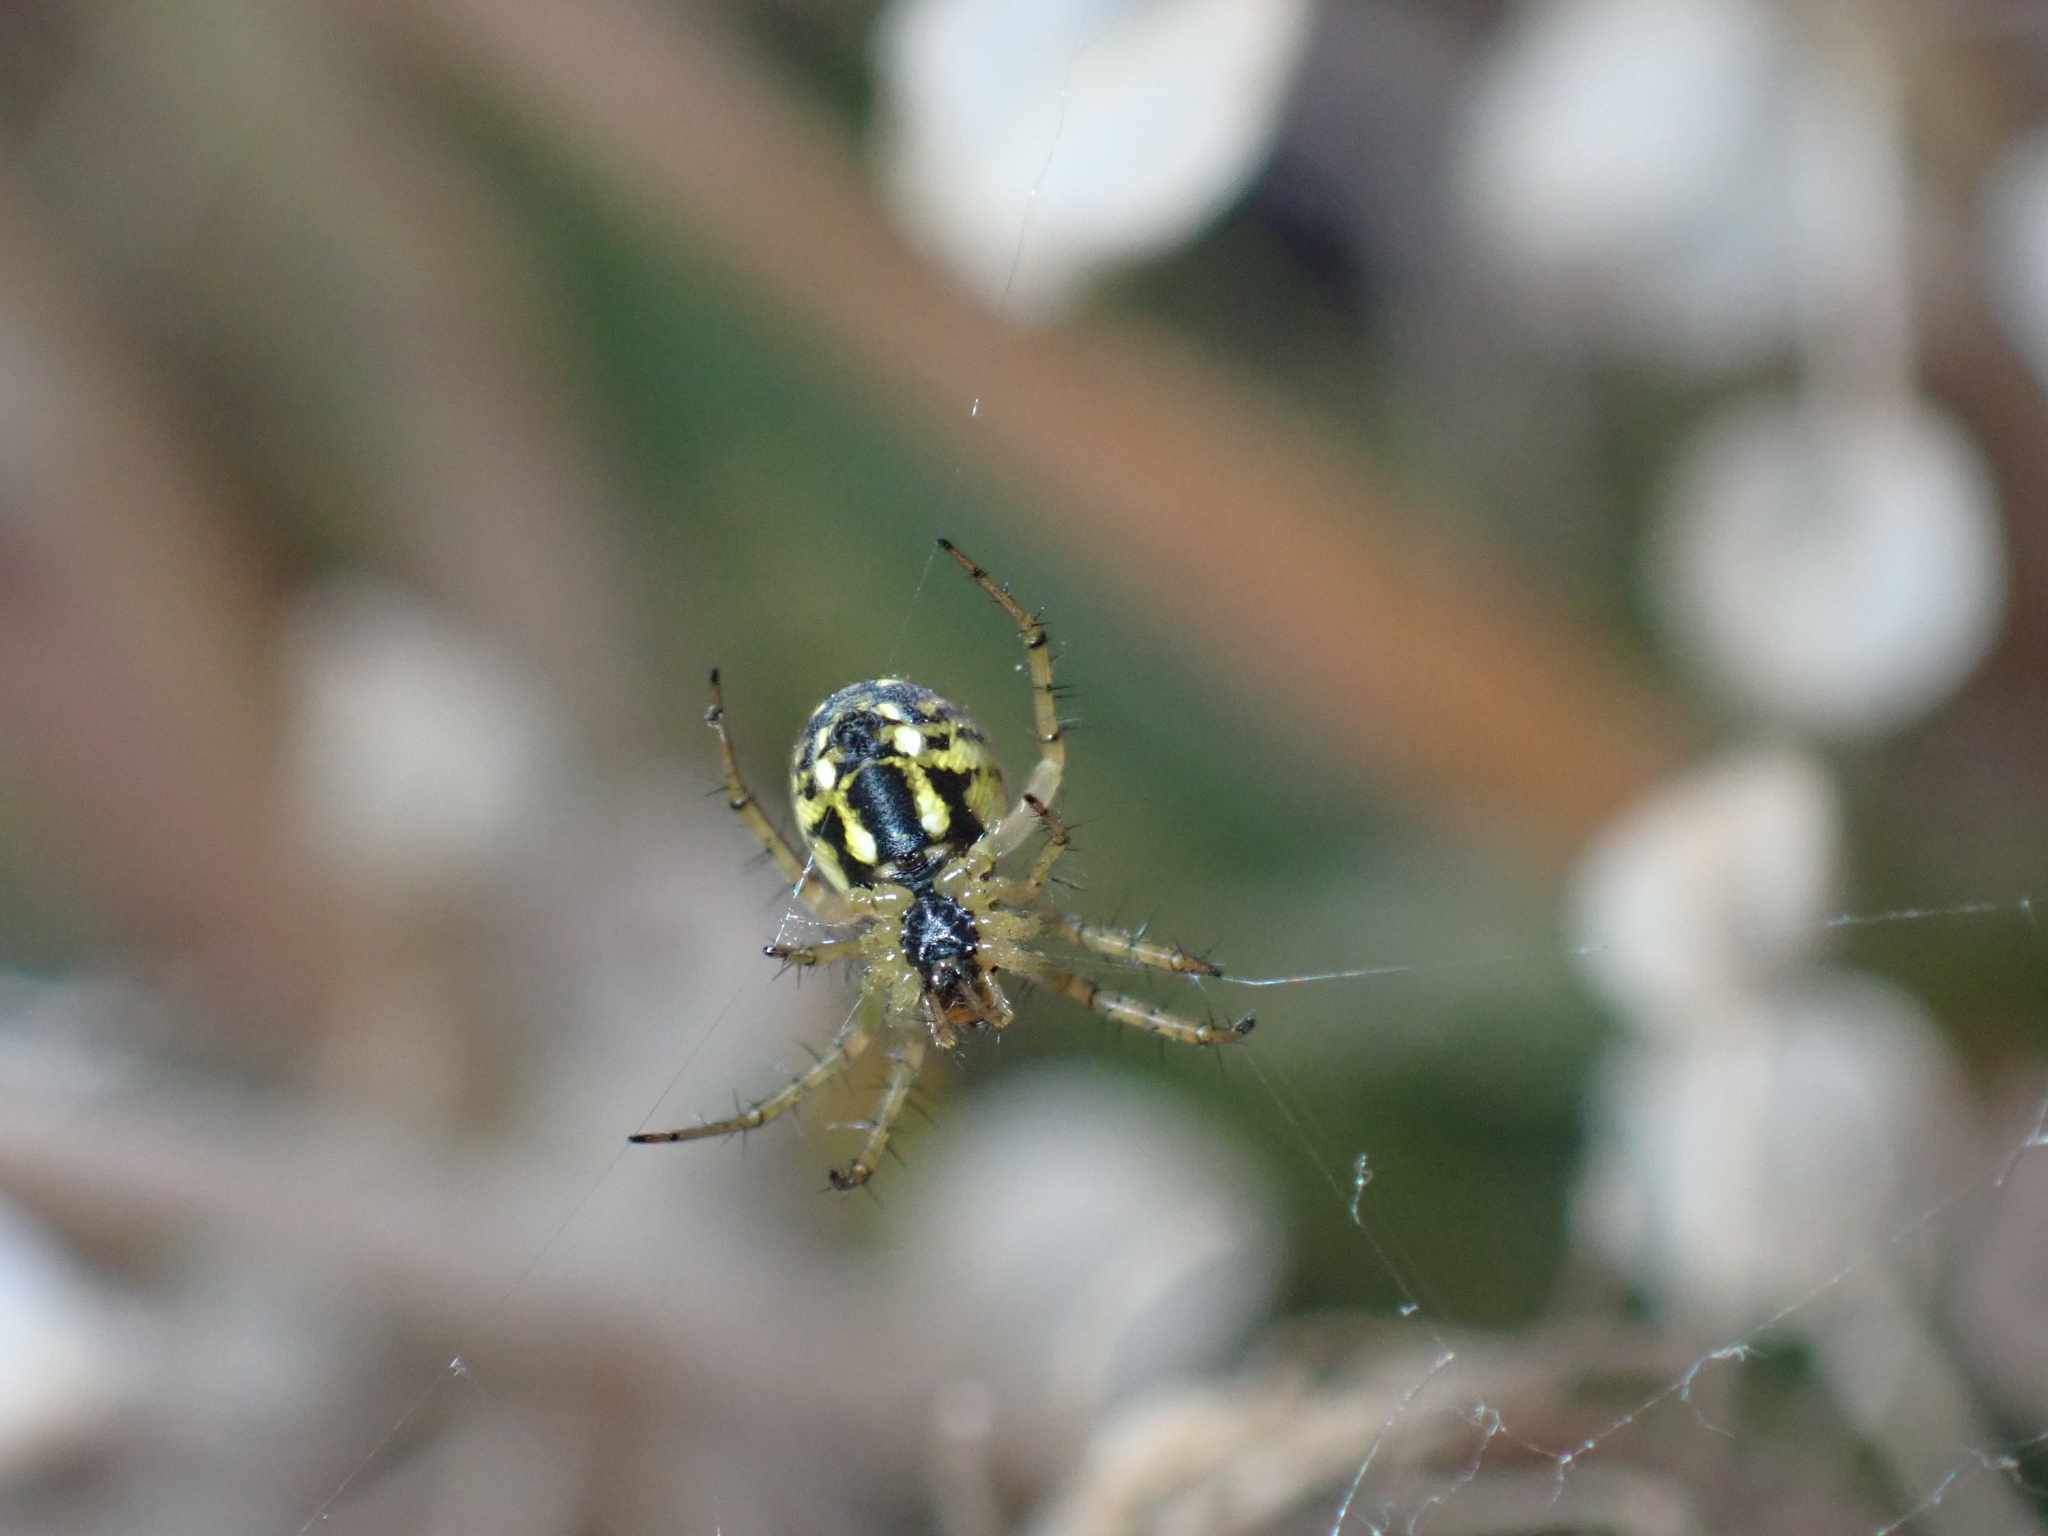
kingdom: Animalia
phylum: Arthropoda
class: Arachnida
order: Araneae
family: Araneidae
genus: Mangora
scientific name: Mangora acalypha
